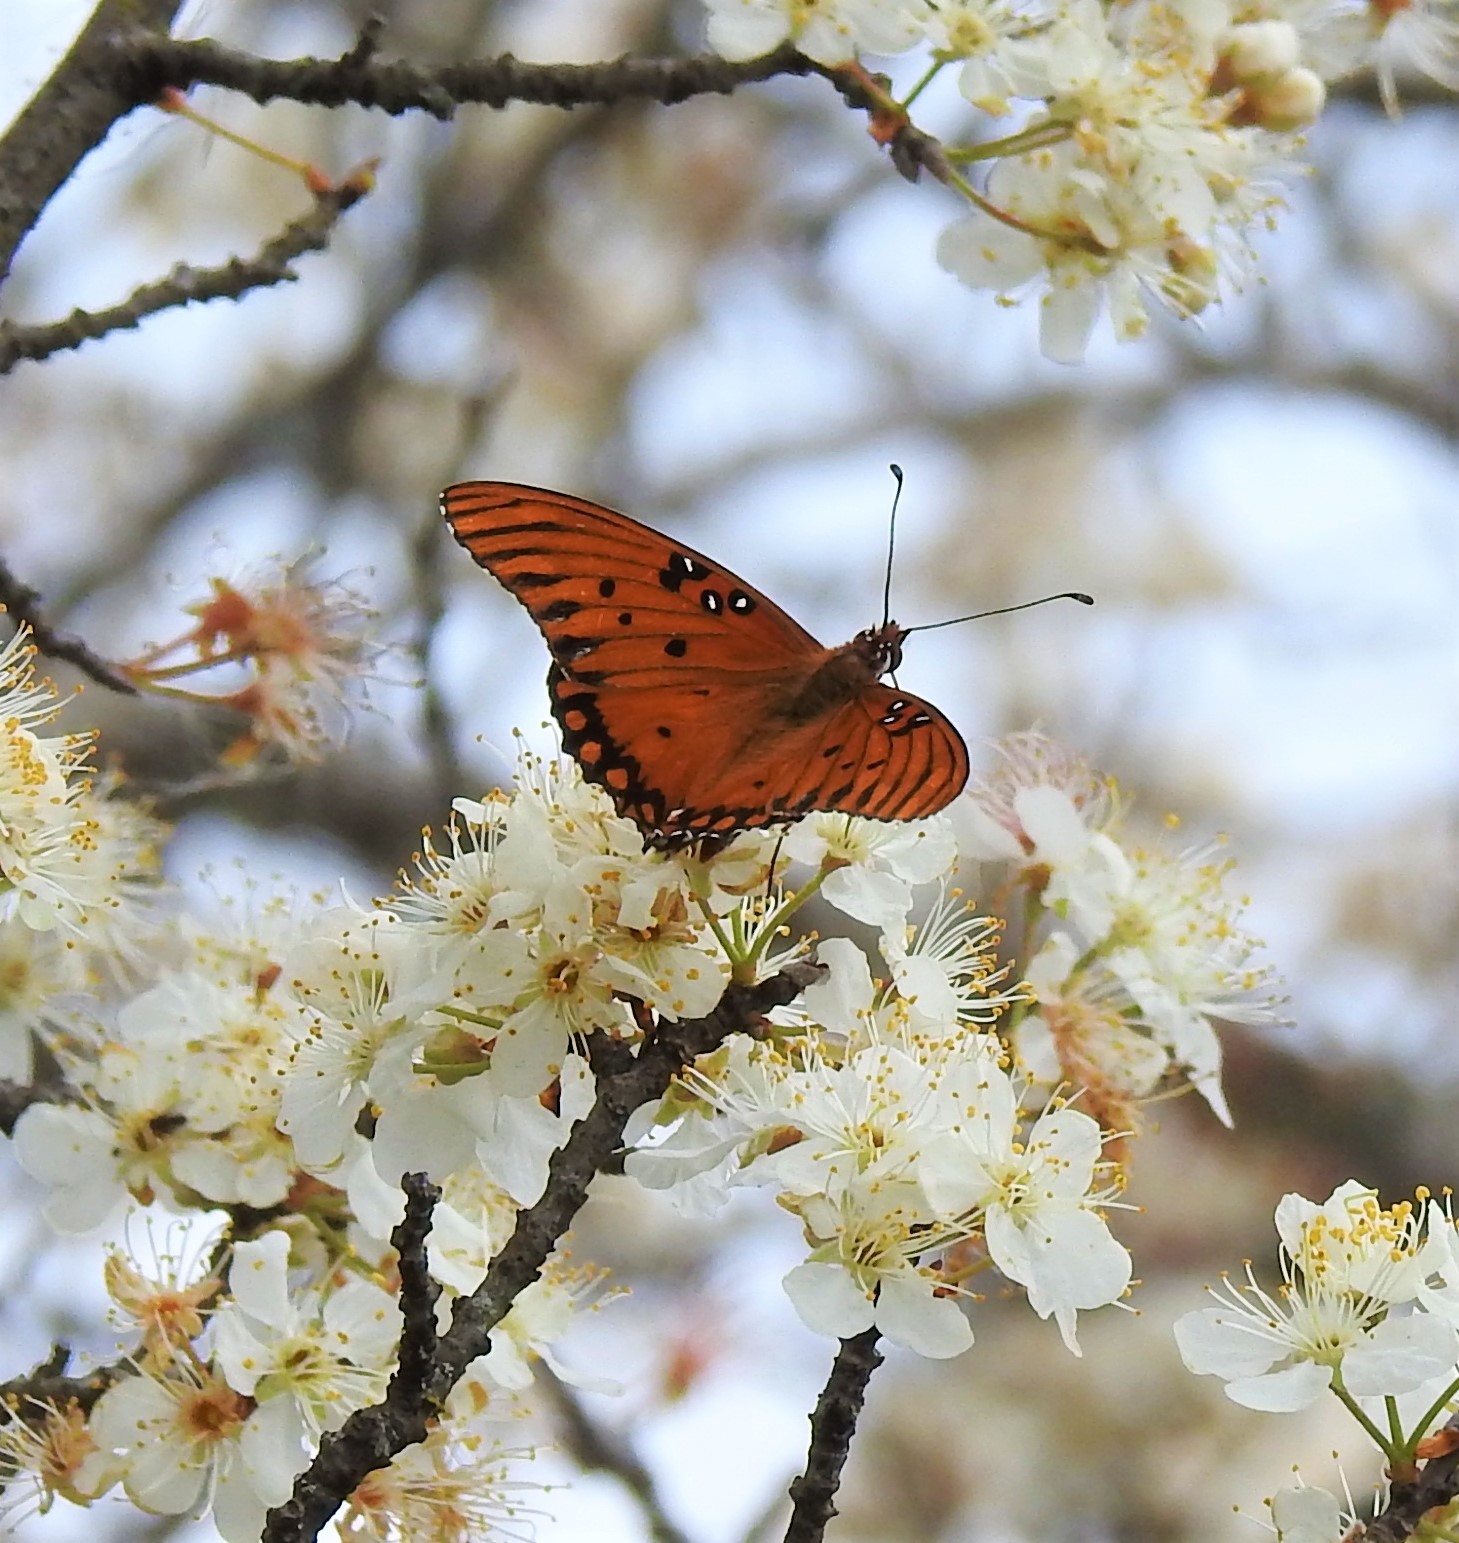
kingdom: Animalia
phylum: Arthropoda
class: Insecta
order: Lepidoptera
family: Nymphalidae
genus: Dione
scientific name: Dione vanillae
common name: Gulf fritillary
